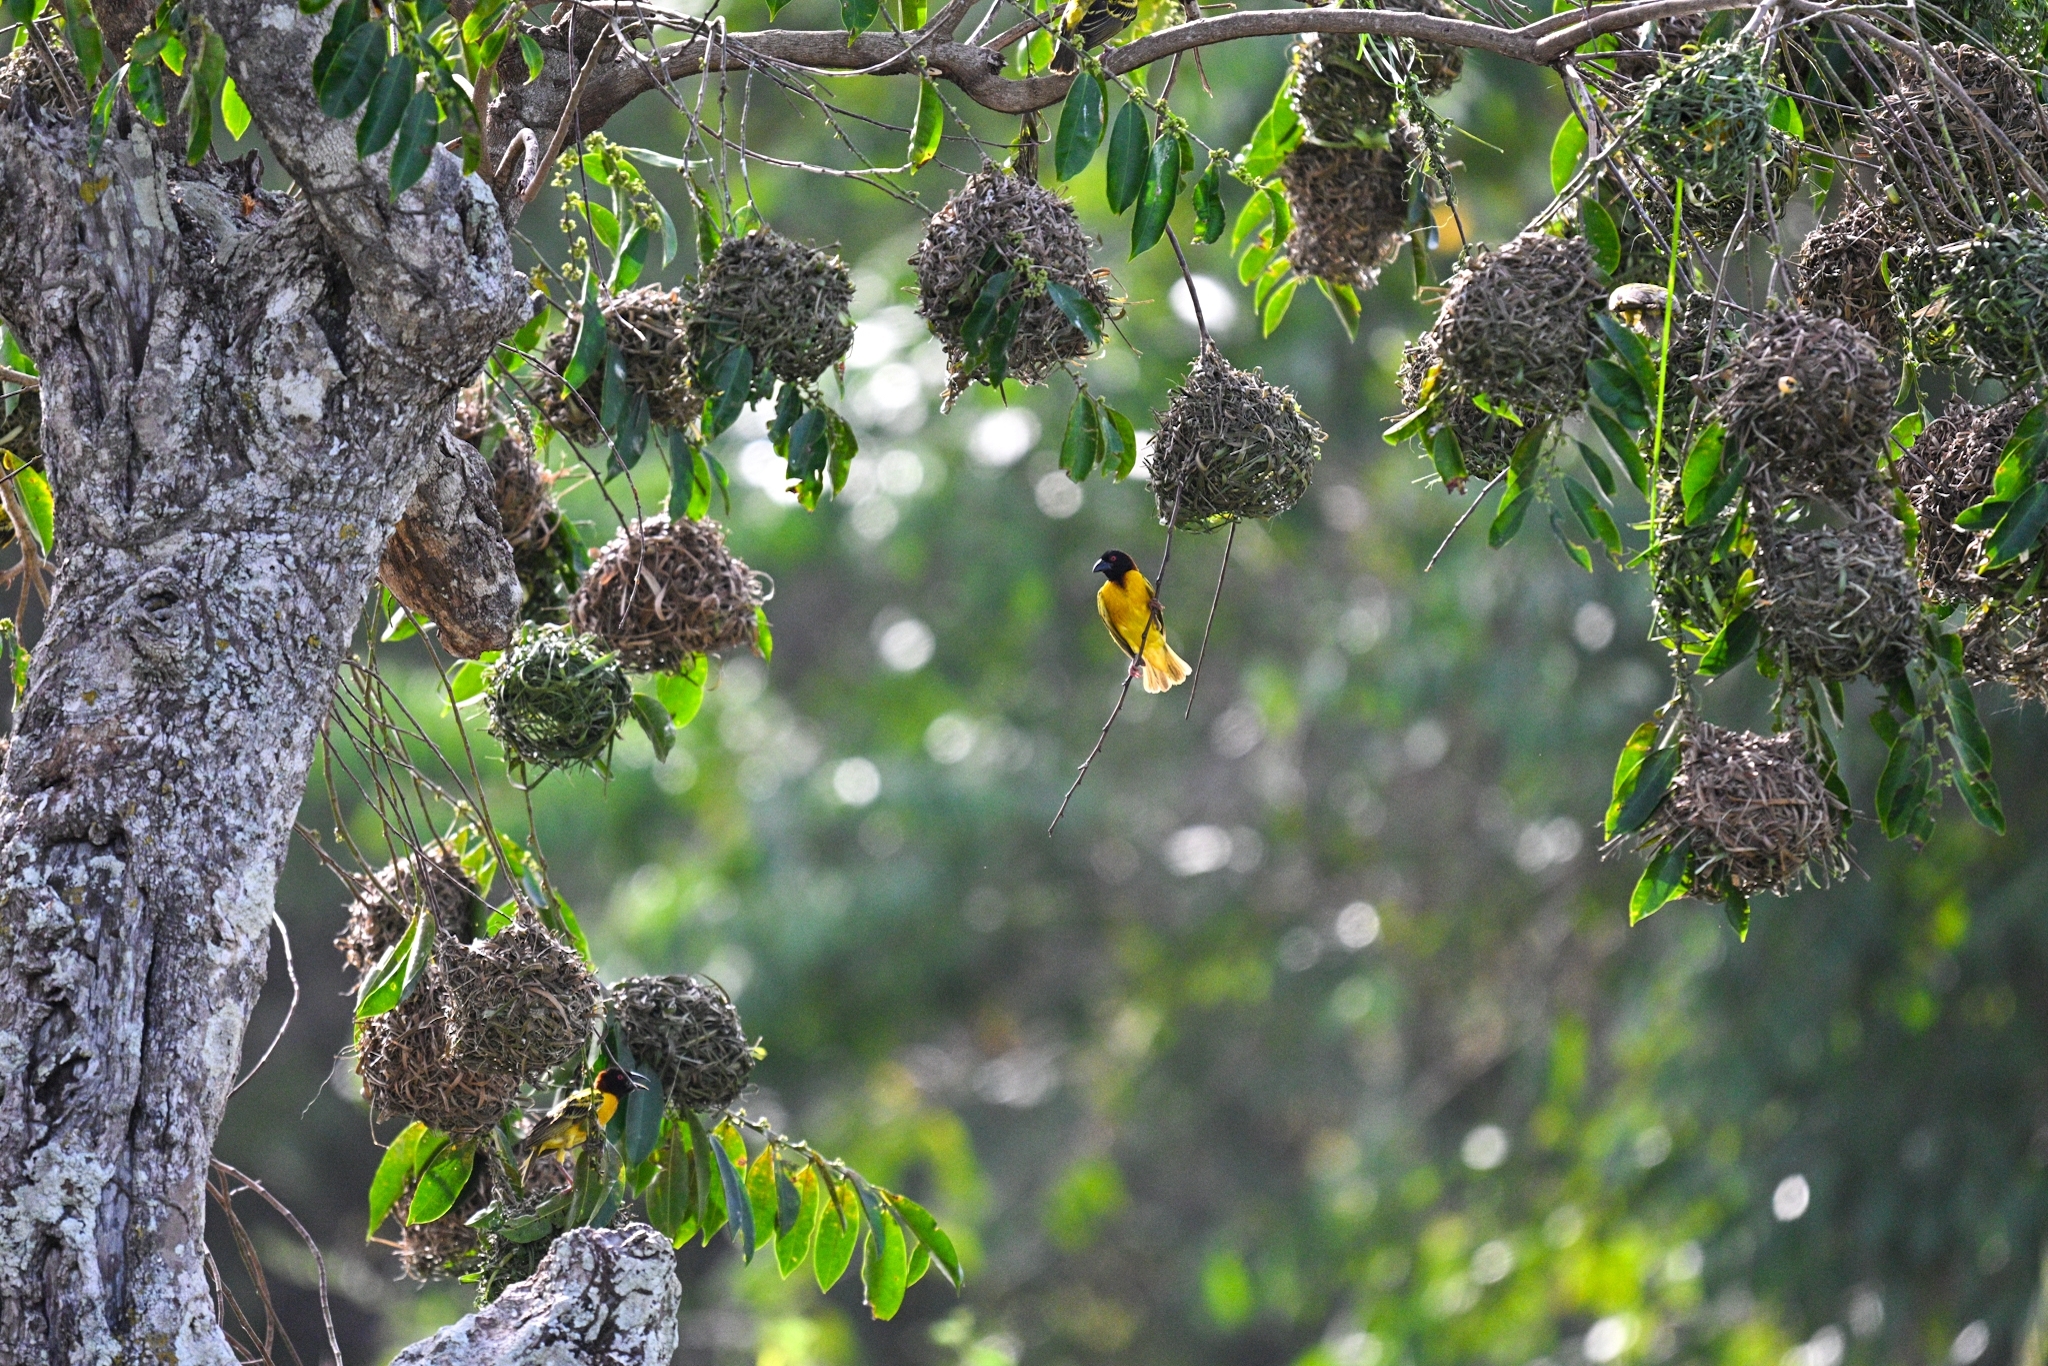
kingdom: Animalia
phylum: Chordata
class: Aves
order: Passeriformes
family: Ploceidae
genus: Ploceus
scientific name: Ploceus cucullatus
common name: Village weaver
